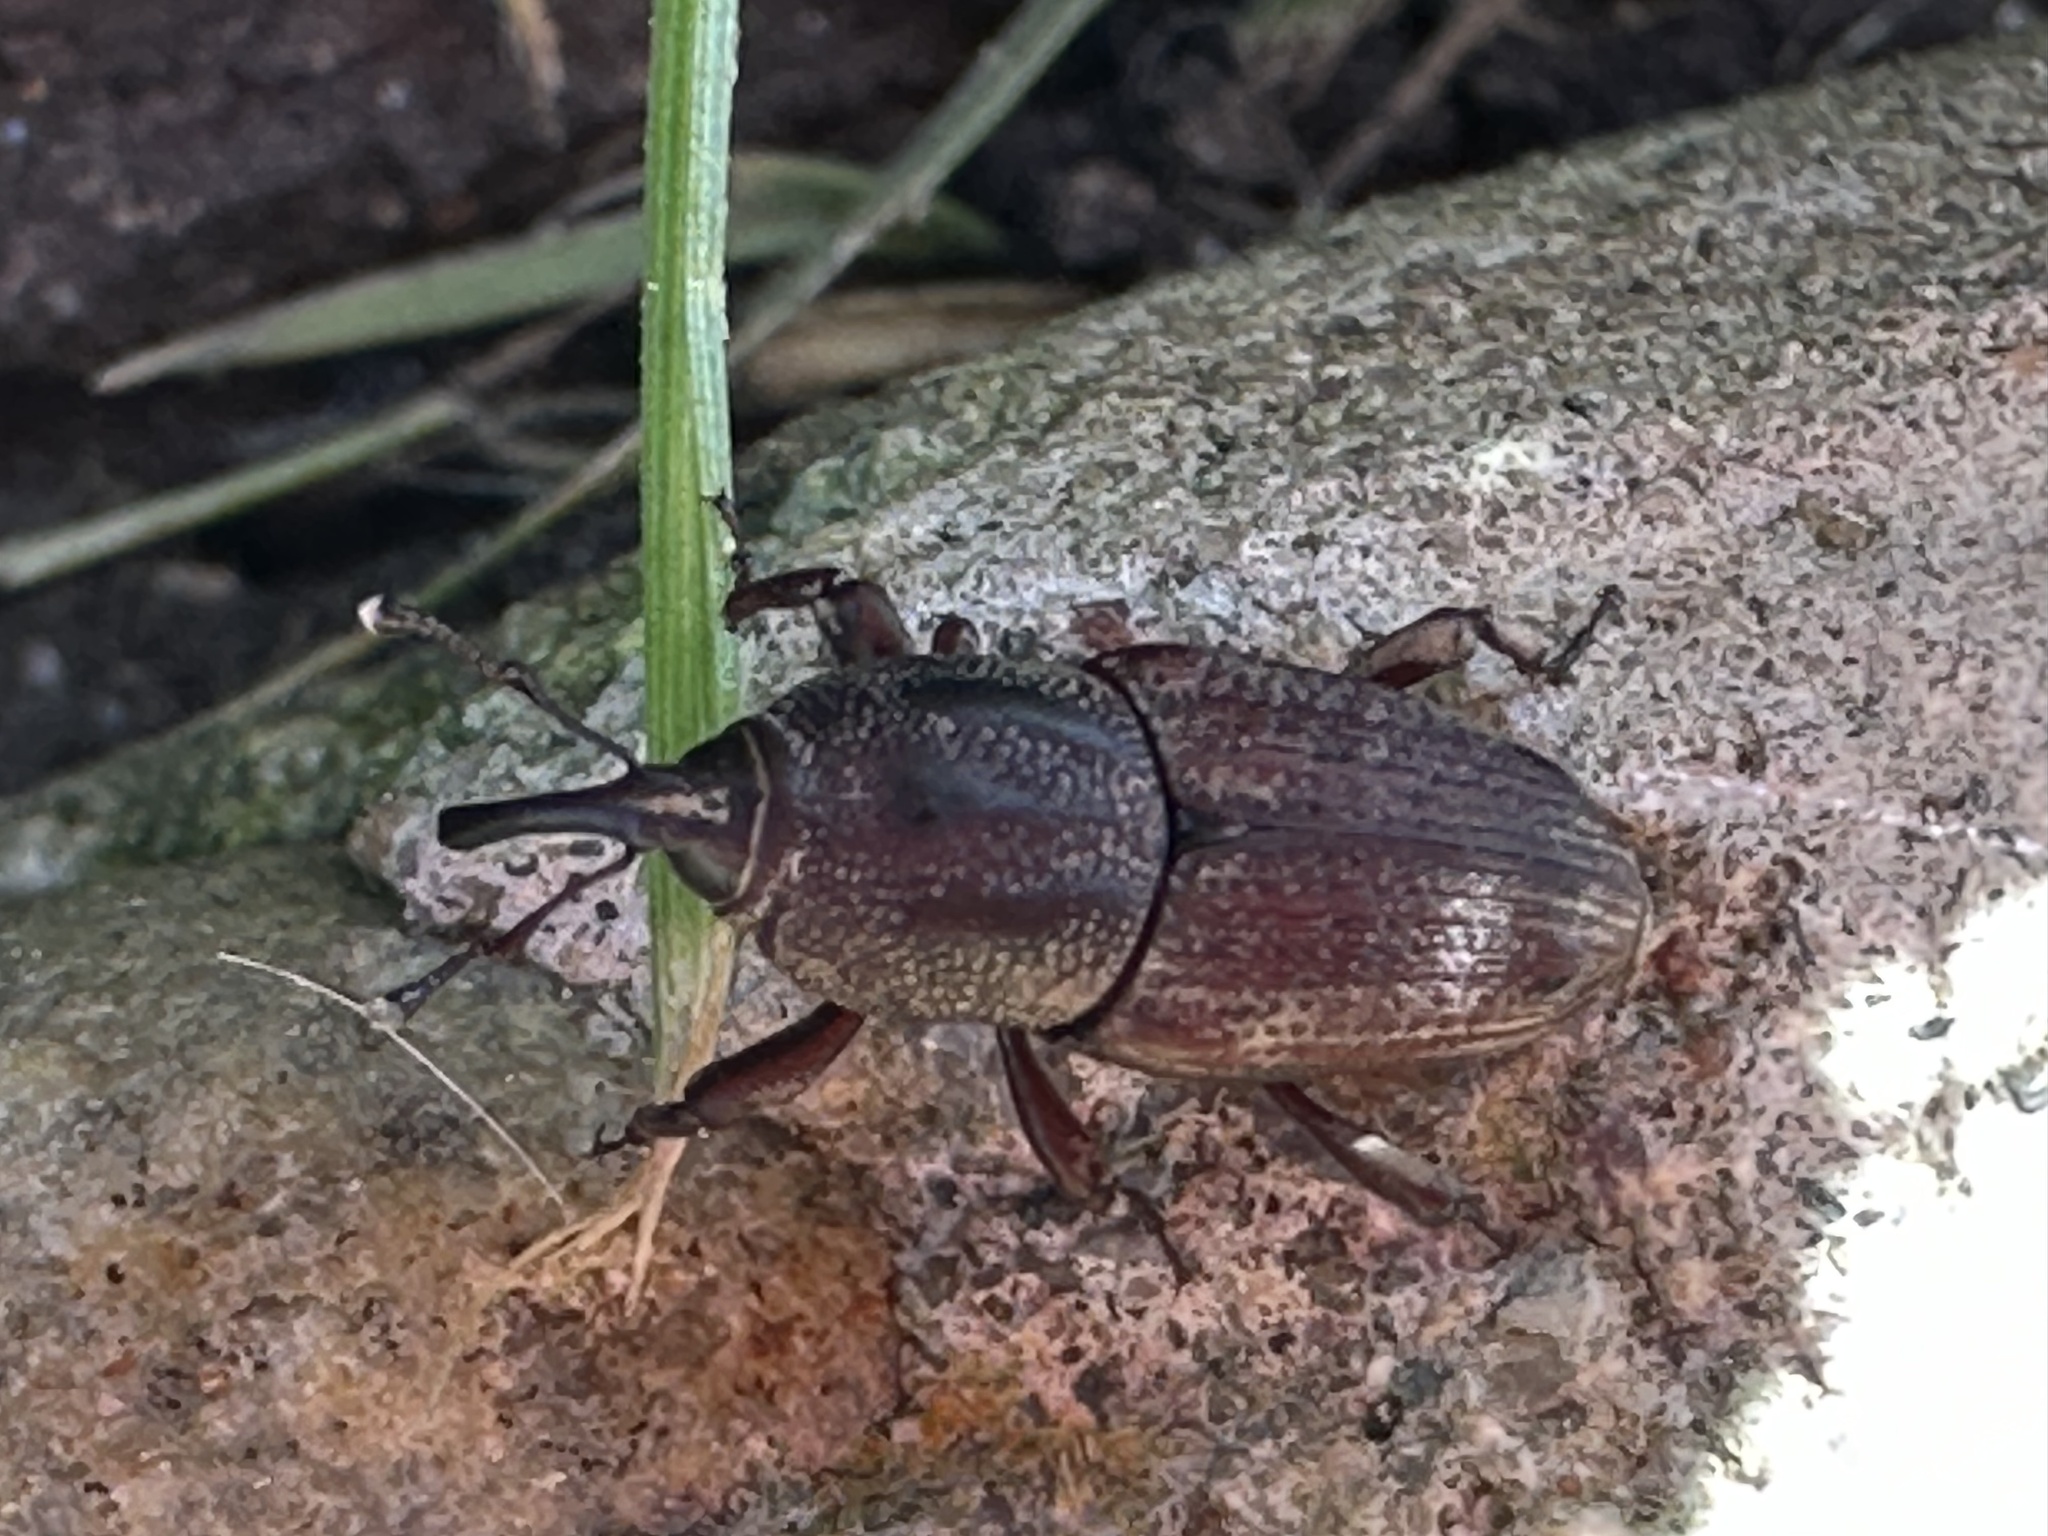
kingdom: Animalia
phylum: Arthropoda
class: Insecta
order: Coleoptera
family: Dryophthoridae
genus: Sphenophorus
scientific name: Sphenophorus venatus
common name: Hunting billbug
